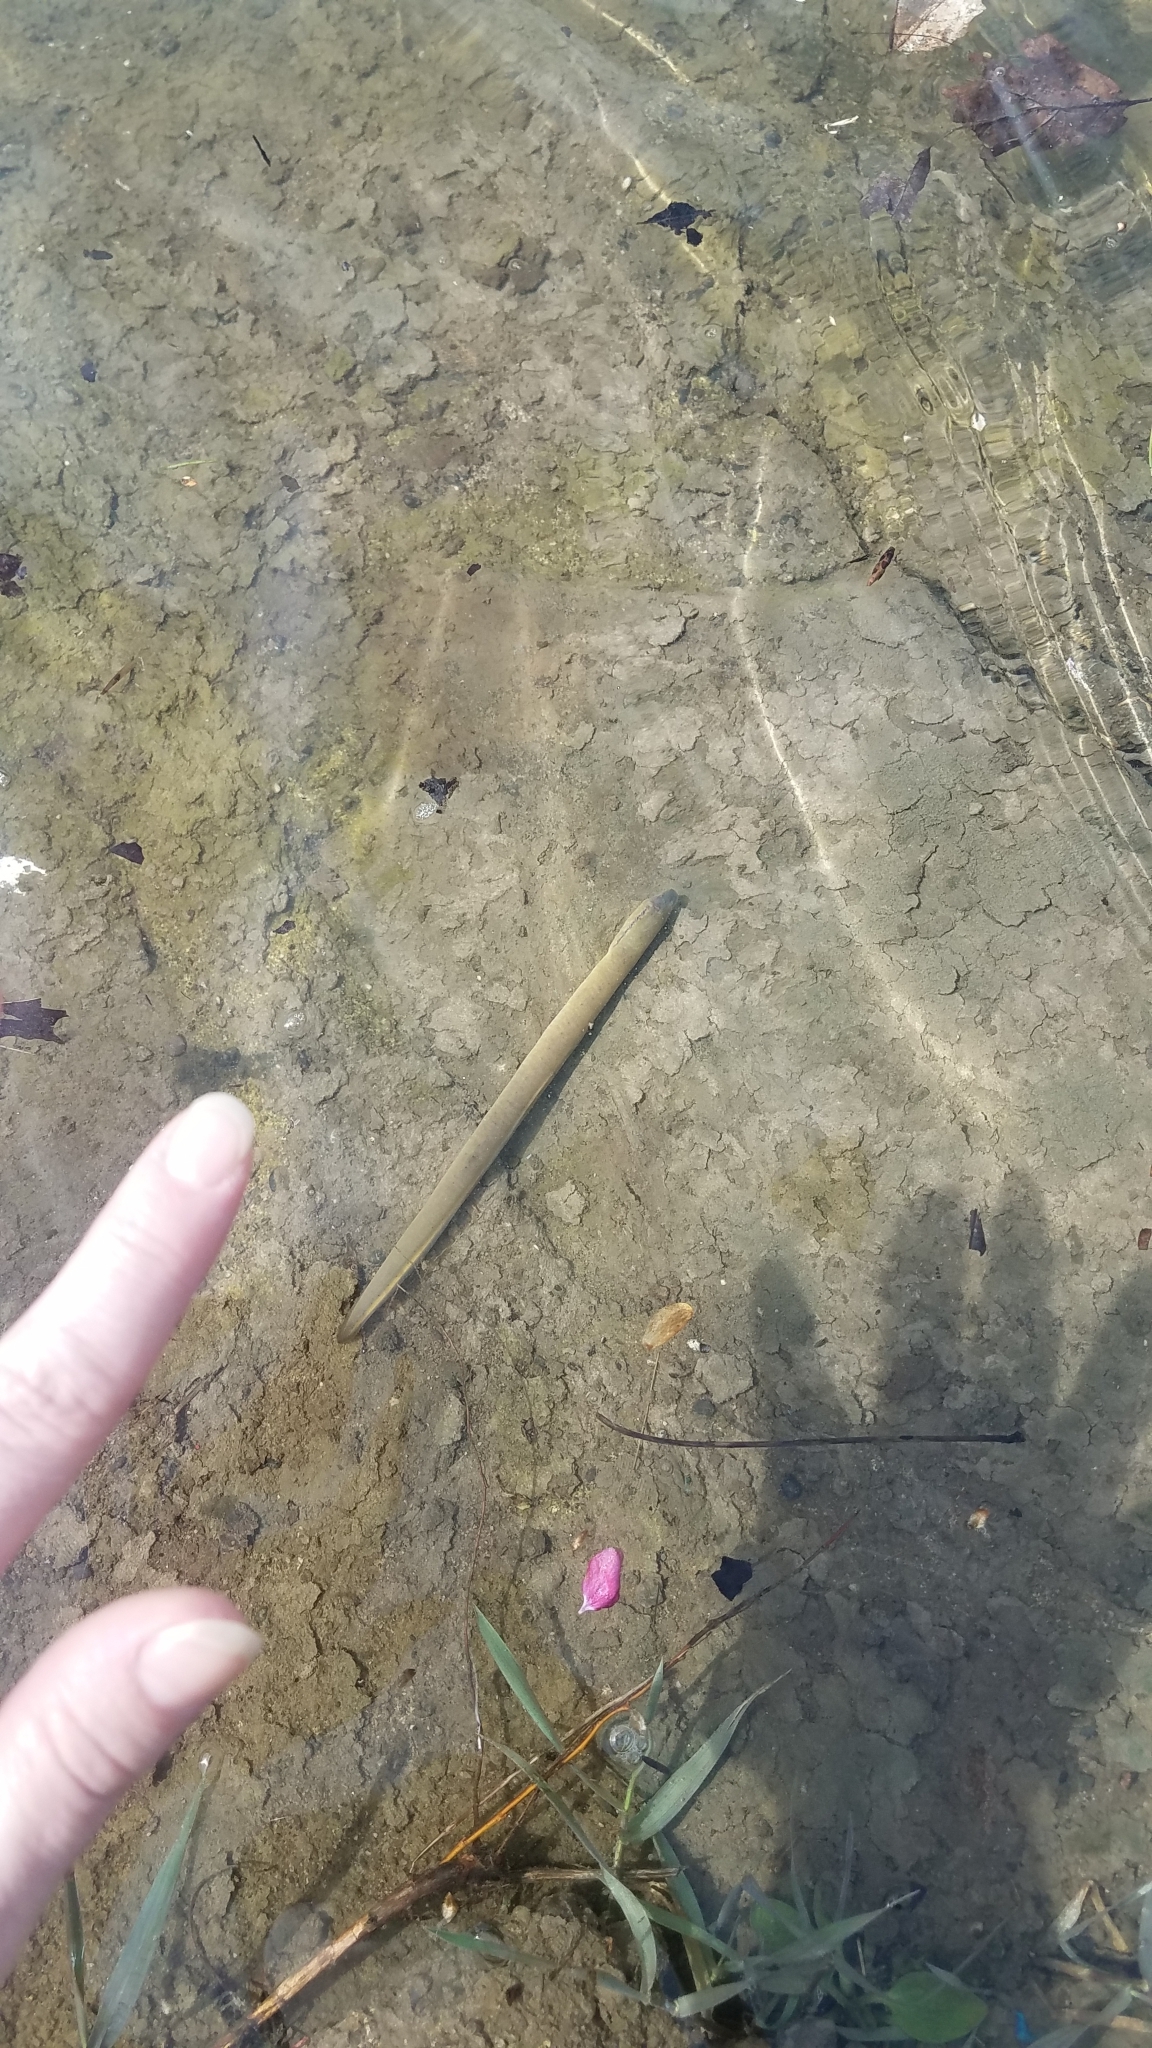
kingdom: Animalia
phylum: Chordata
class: Petromyzonti
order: Petromyzontiformes
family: Petromyzontidae
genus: Ichthyomyzon
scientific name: Ichthyomyzon bdellium
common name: Ohio lamprey
